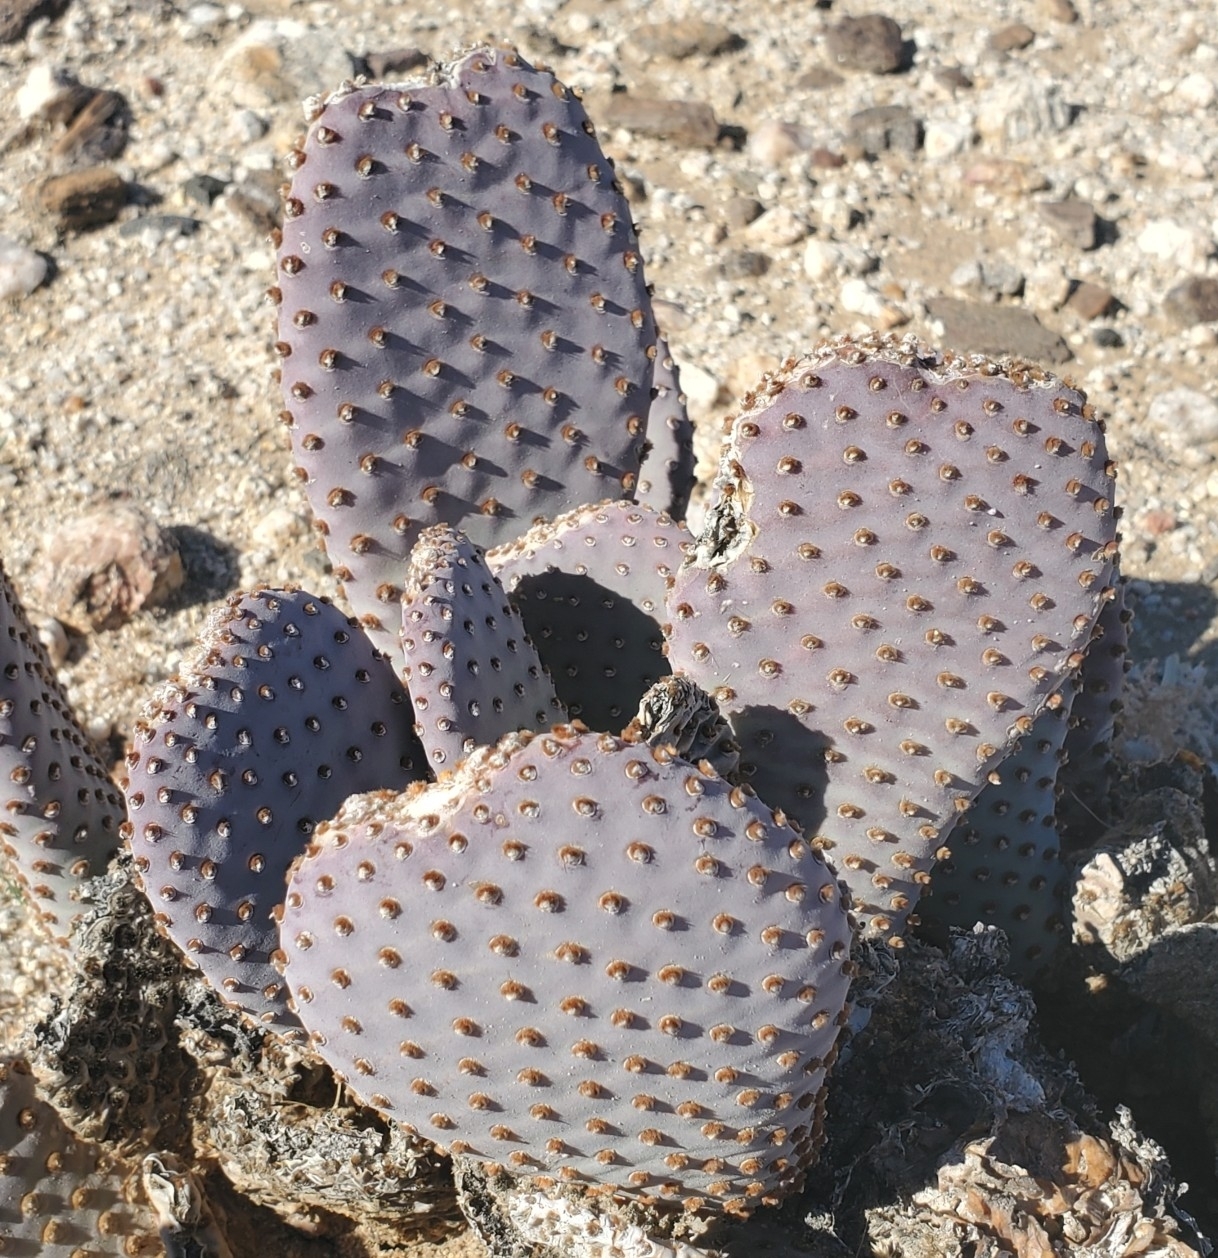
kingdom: Plantae
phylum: Tracheophyta
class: Magnoliopsida
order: Caryophyllales
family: Cactaceae
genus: Opuntia
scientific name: Opuntia basilaris
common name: Beavertail prickly-pear
